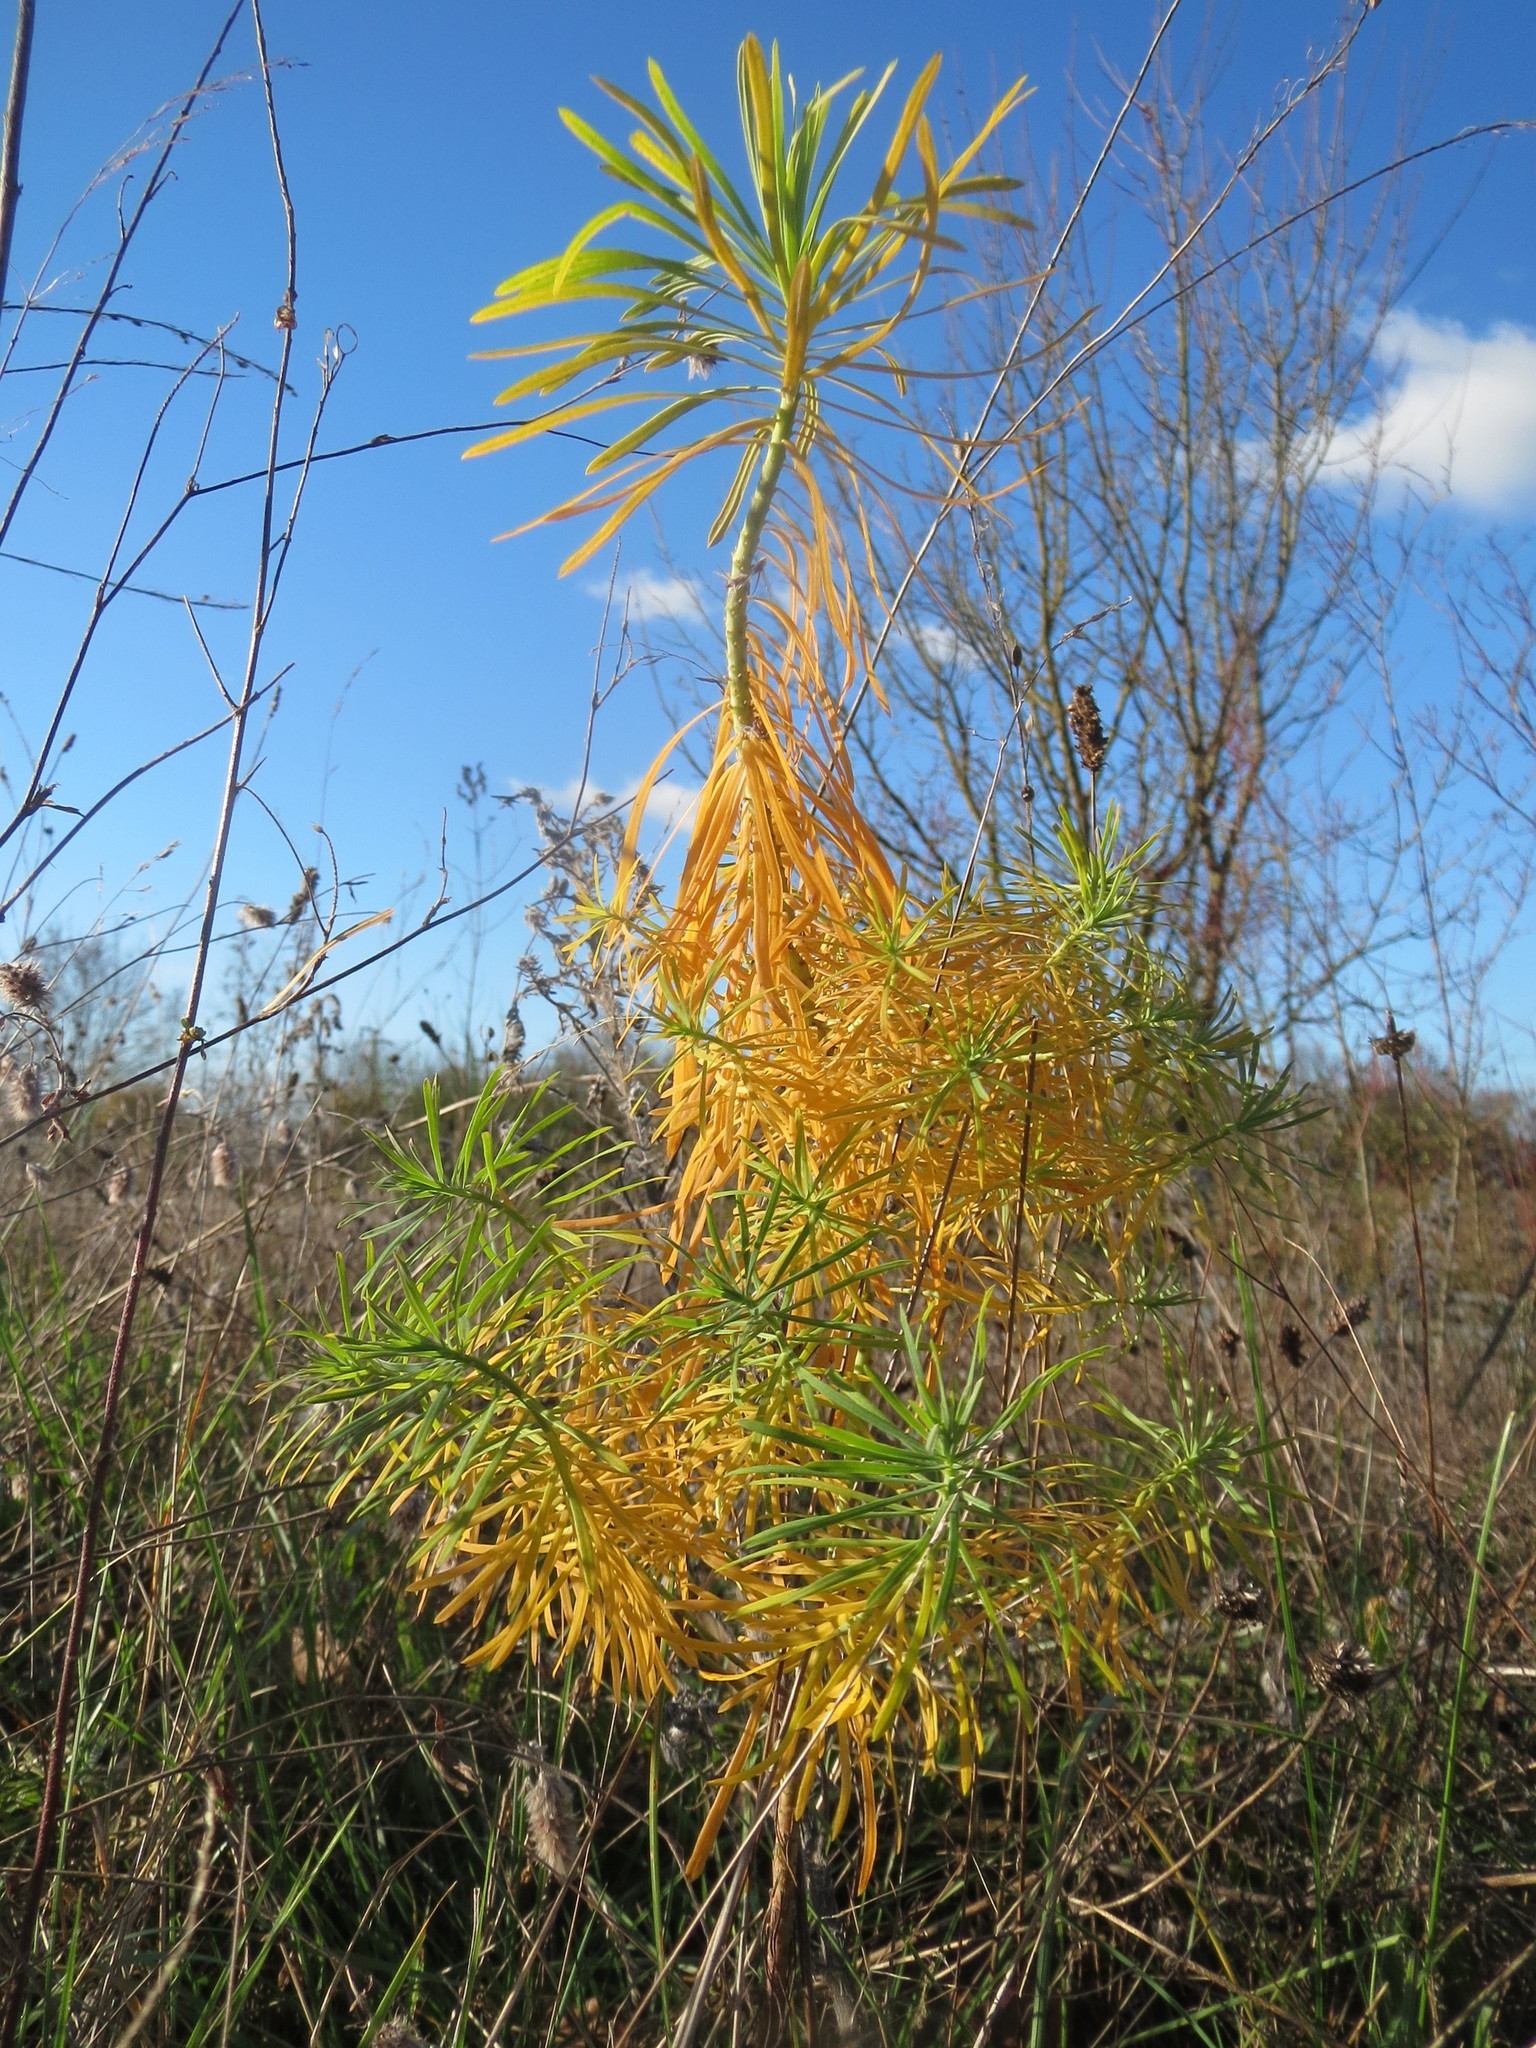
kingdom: Plantae
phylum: Tracheophyta
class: Magnoliopsida
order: Malpighiales
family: Euphorbiaceae
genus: Euphorbia
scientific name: Euphorbia cyparissias
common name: Cypress spurge
